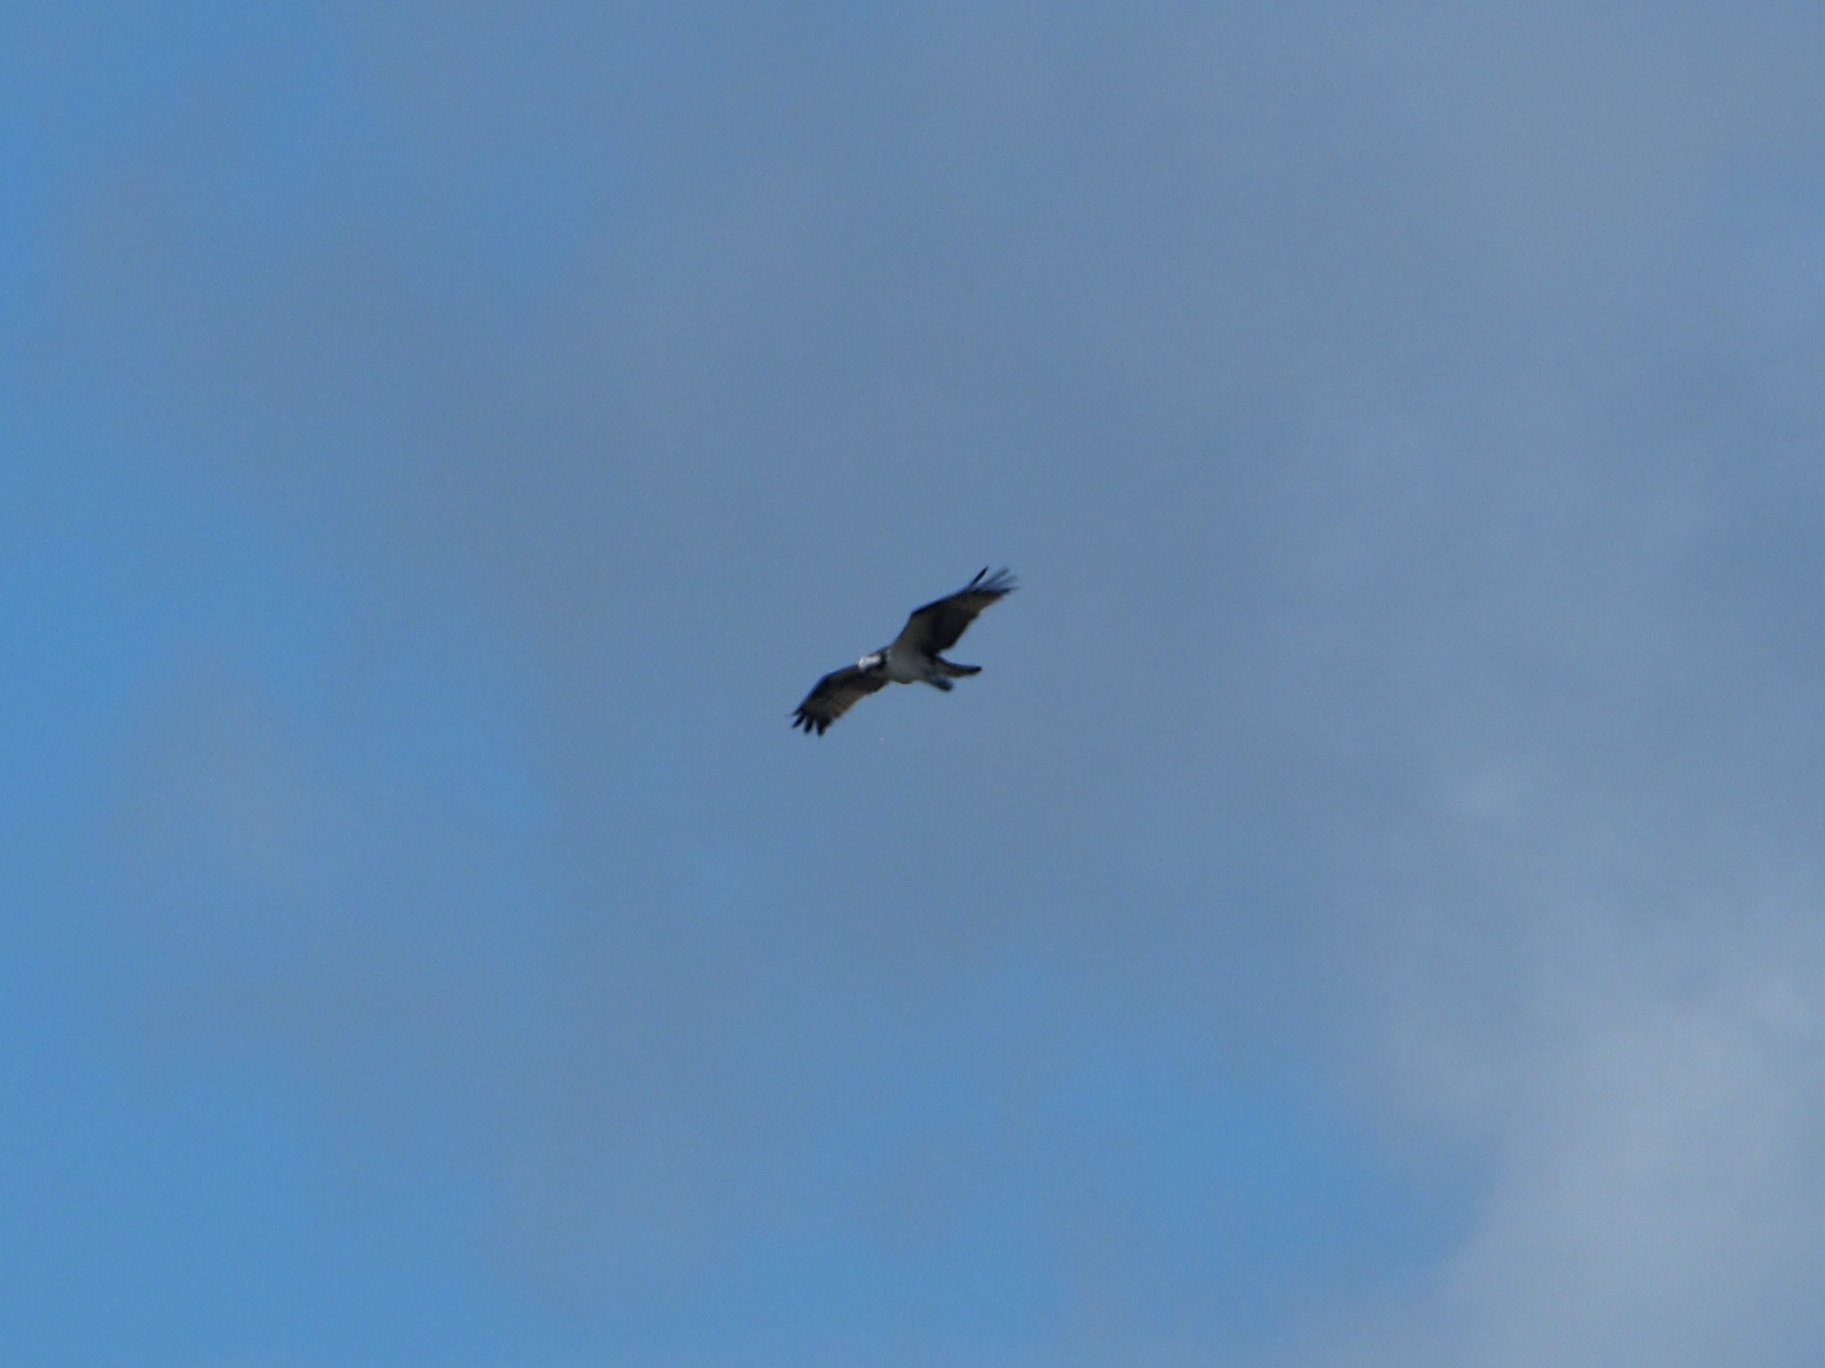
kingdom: Animalia
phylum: Chordata
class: Aves
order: Accipitriformes
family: Pandionidae
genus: Pandion
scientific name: Pandion haliaetus
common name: Osprey
